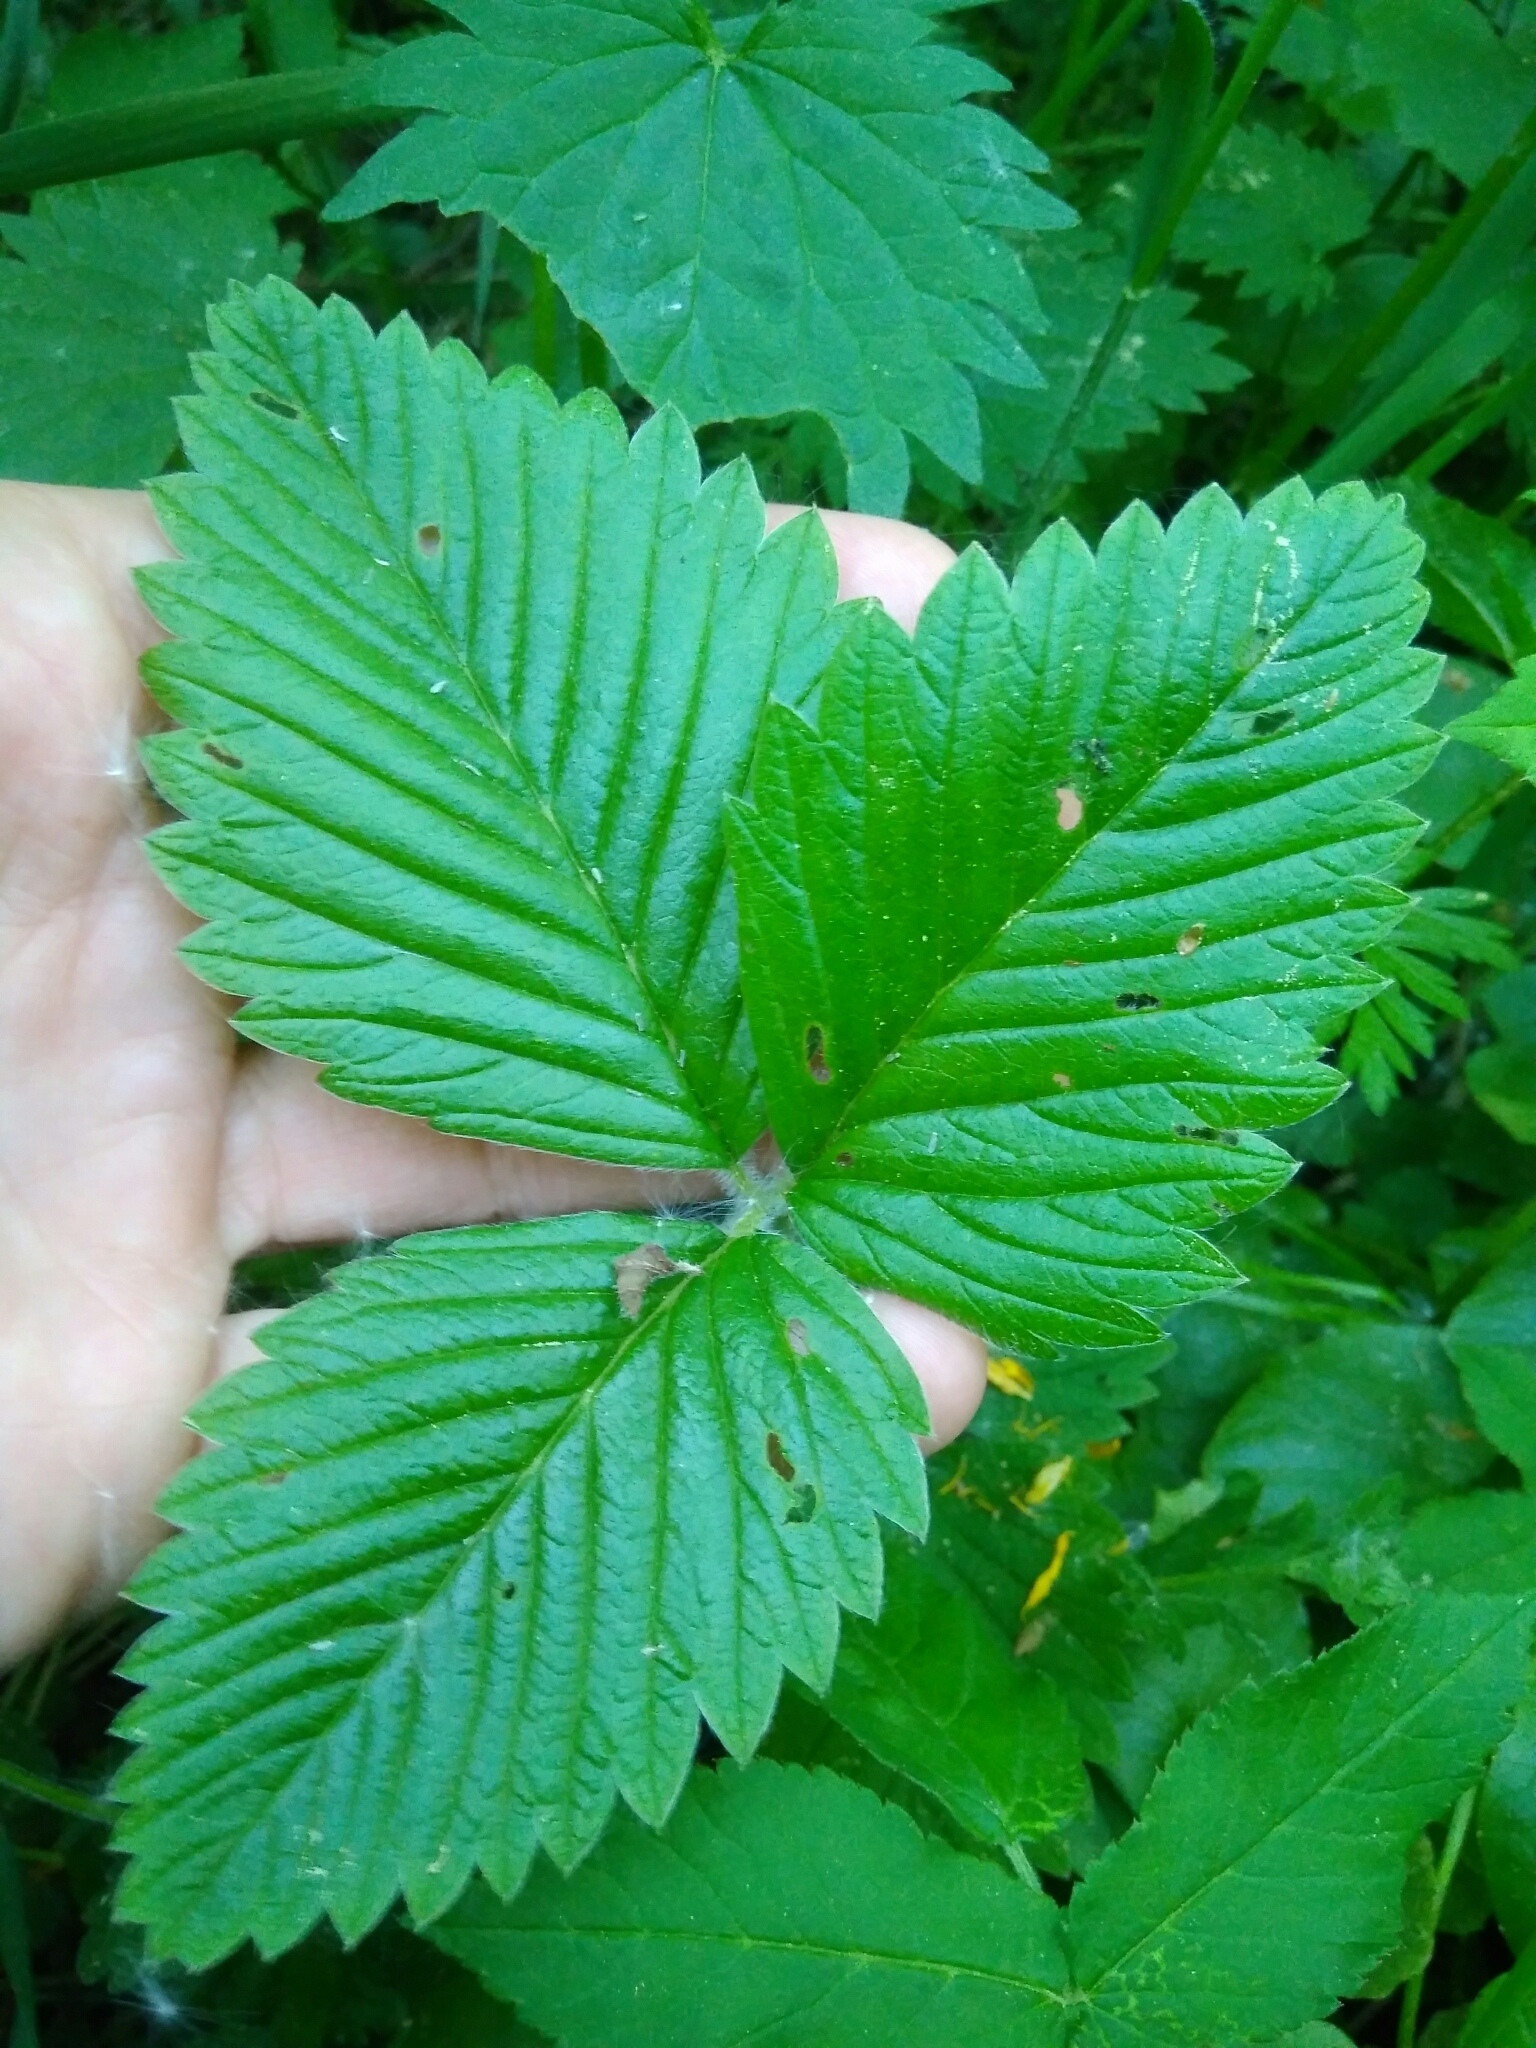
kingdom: Plantae
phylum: Tracheophyta
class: Magnoliopsida
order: Rosales
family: Rosaceae
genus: Fragaria
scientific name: Fragaria moschata
